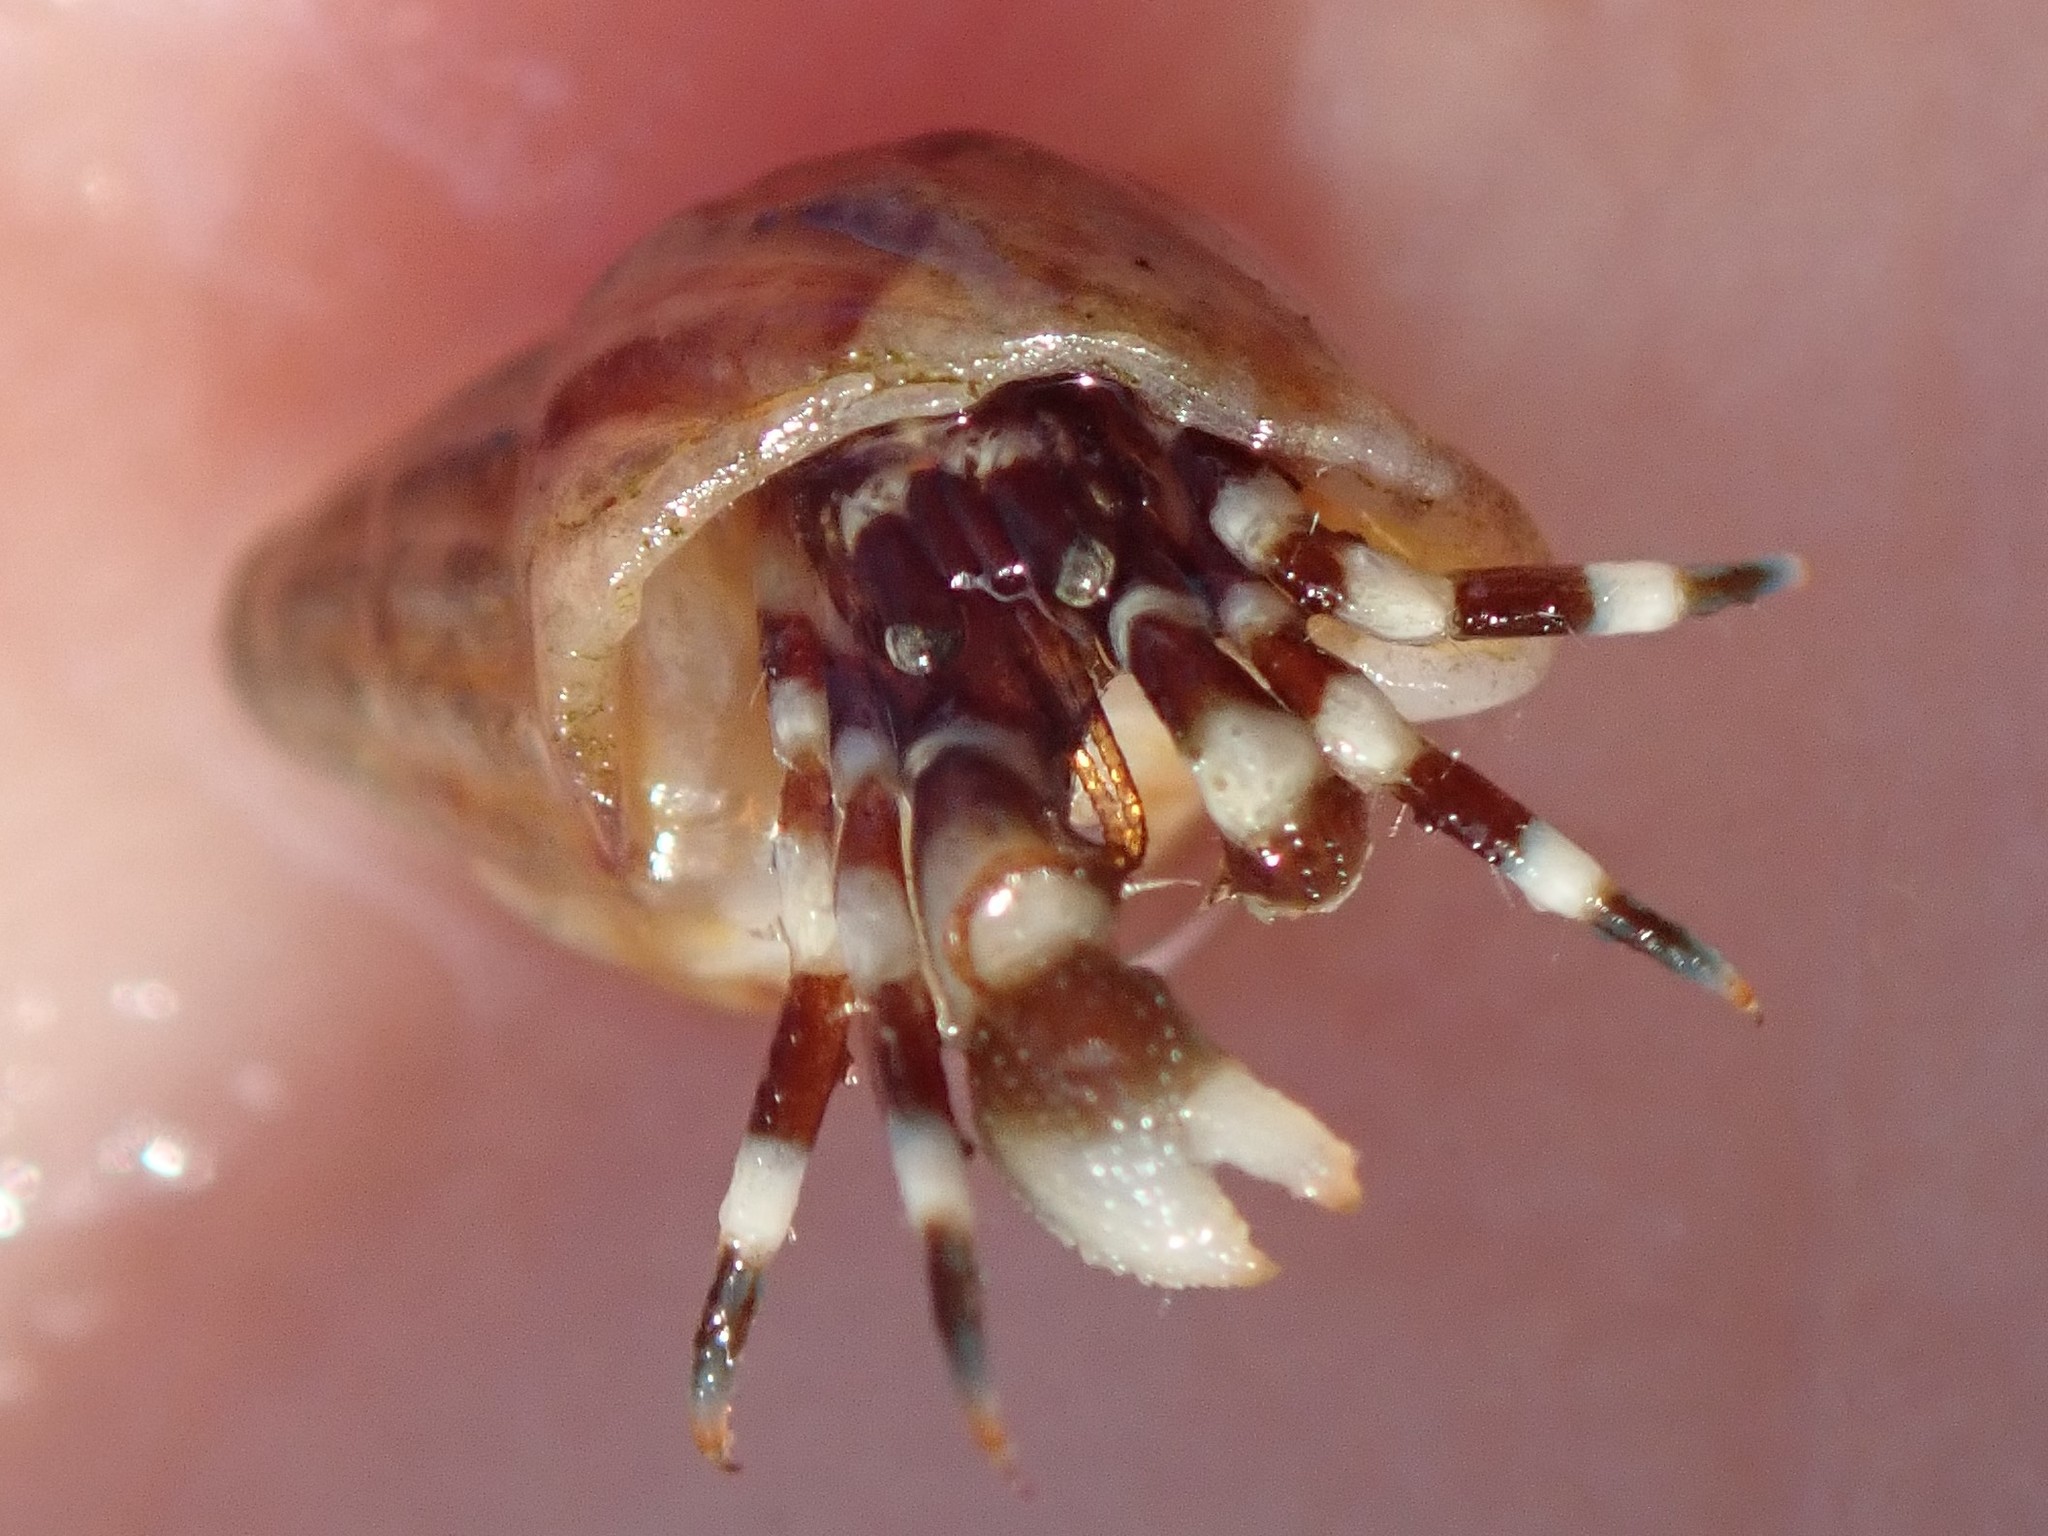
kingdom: Animalia
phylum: Arthropoda
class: Malacostraca
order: Decapoda
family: Paguridae
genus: Pagurus
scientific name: Pagurus samuelis
